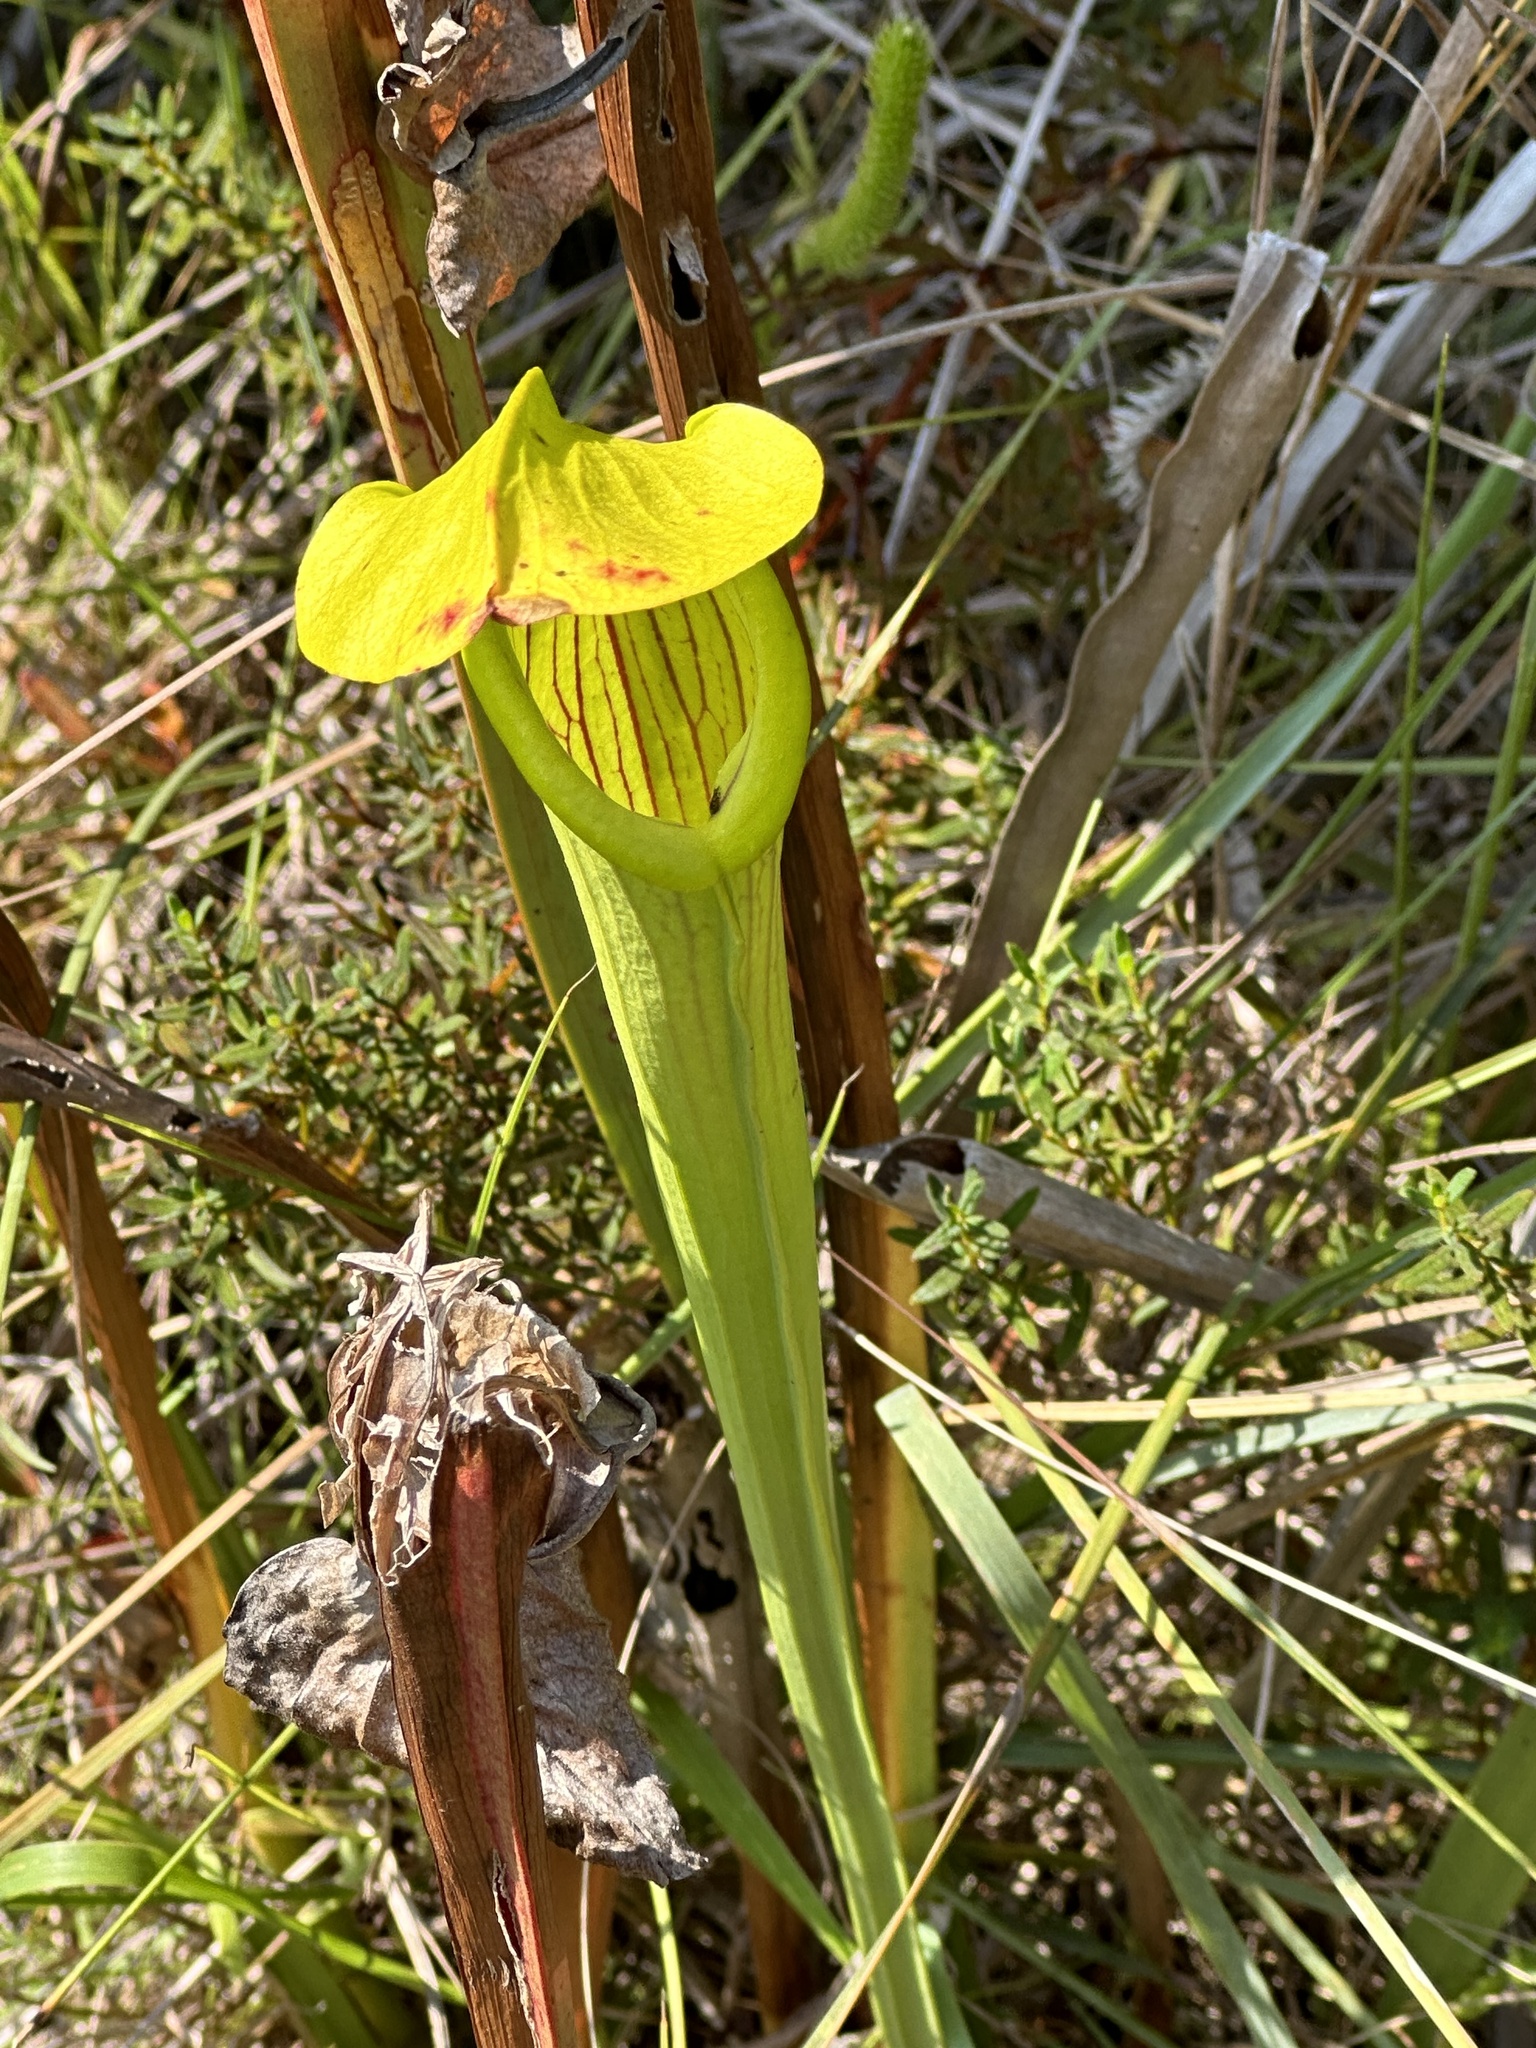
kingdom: Plantae
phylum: Tracheophyta
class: Magnoliopsida
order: Ericales
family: Sarraceniaceae
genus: Sarracenia
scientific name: Sarracenia alata
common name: Yellow trumpets
